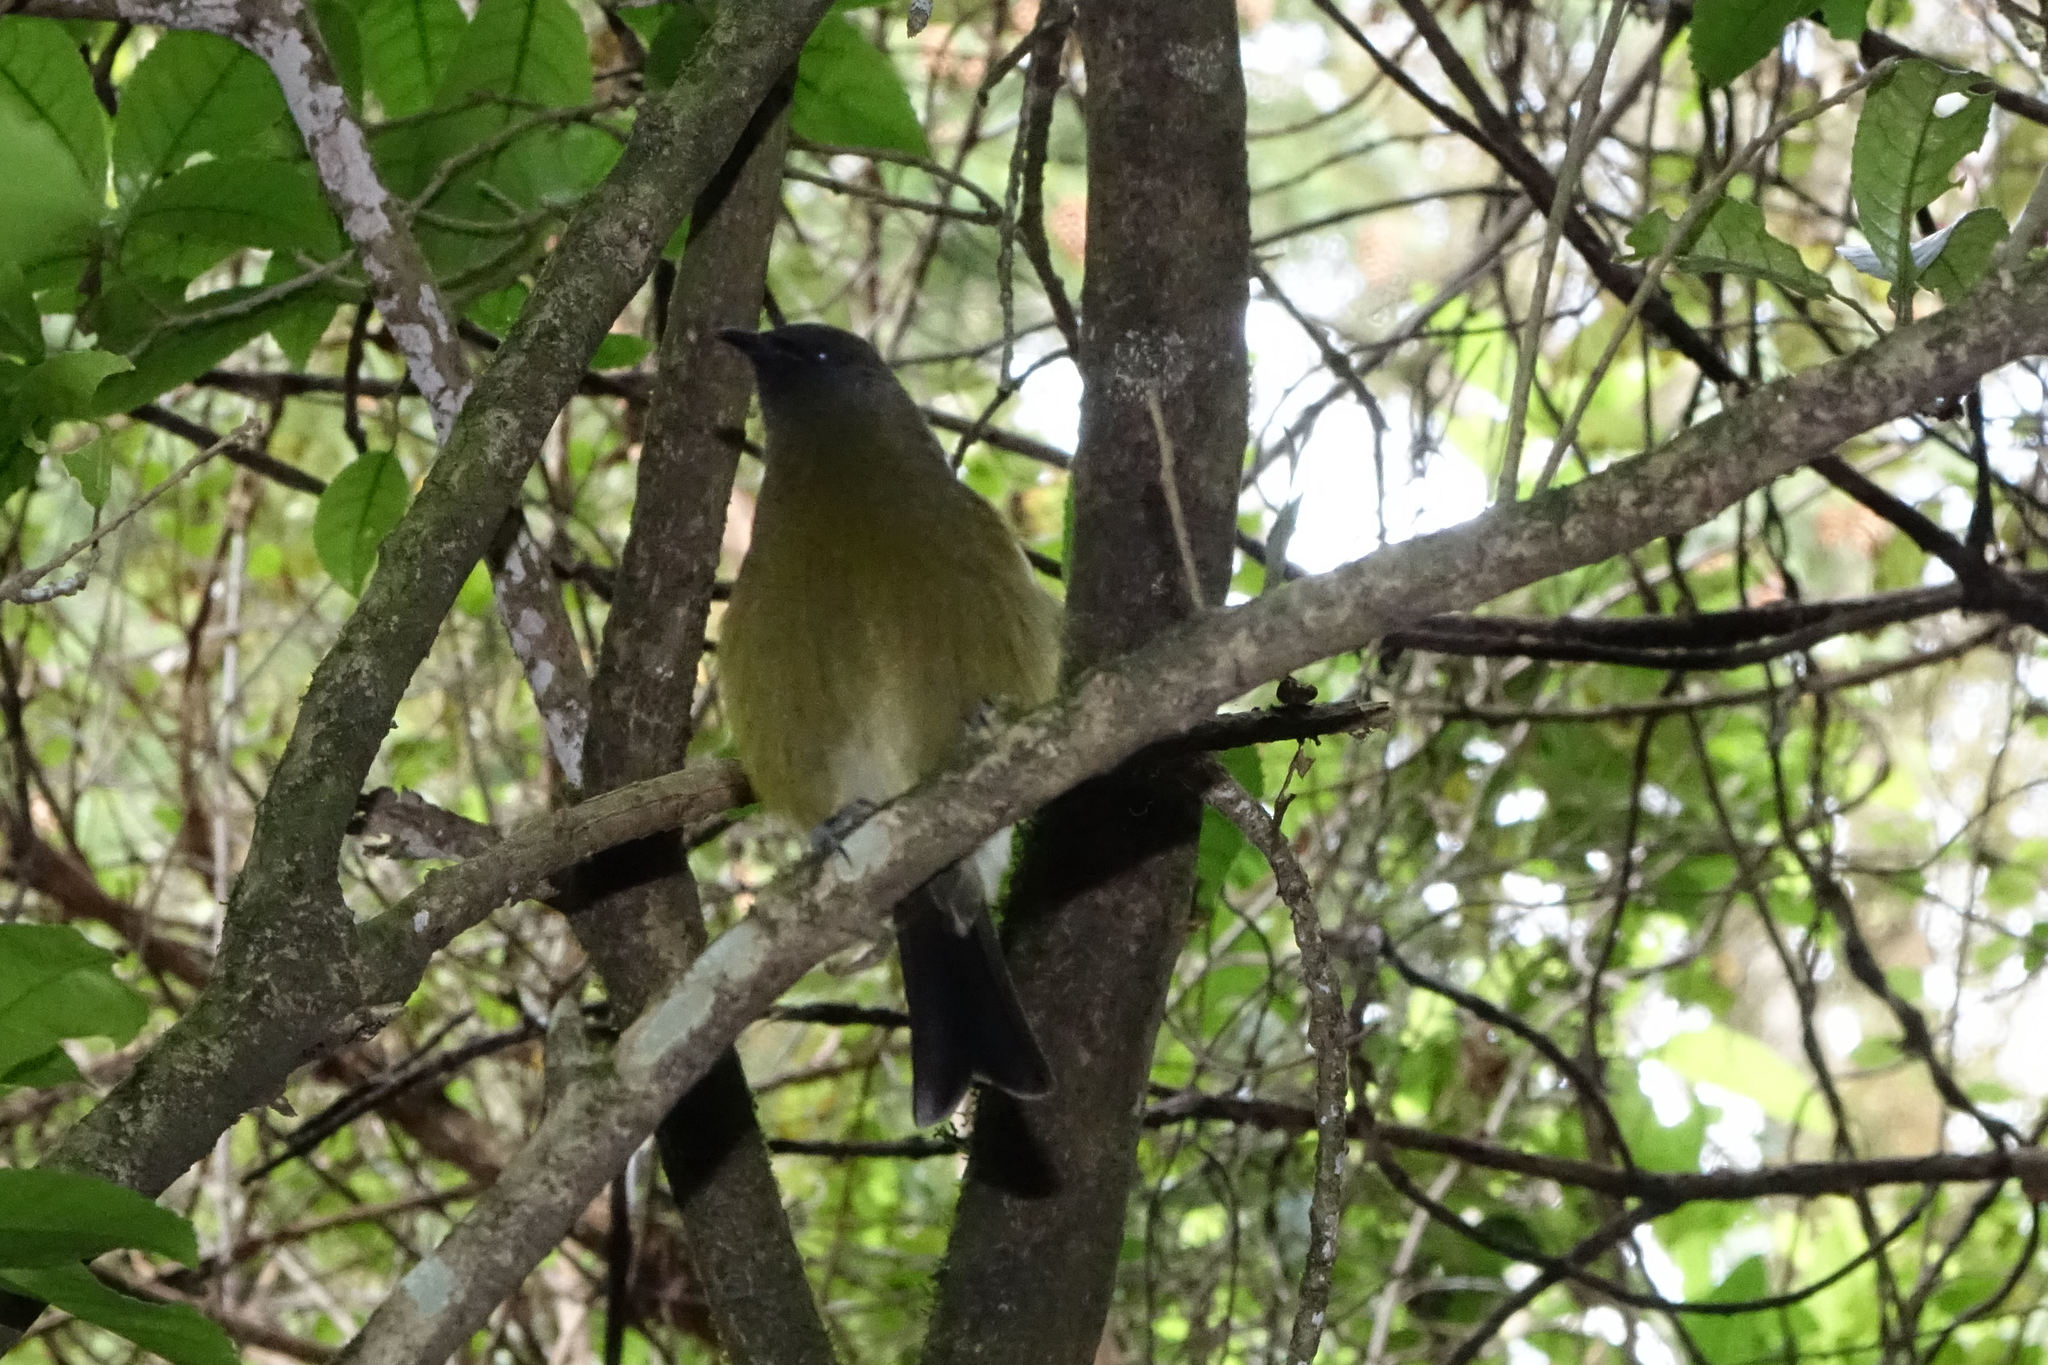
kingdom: Animalia
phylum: Chordata
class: Aves
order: Passeriformes
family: Meliphagidae
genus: Anthornis
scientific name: Anthornis melanura
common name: New zealand bellbird
